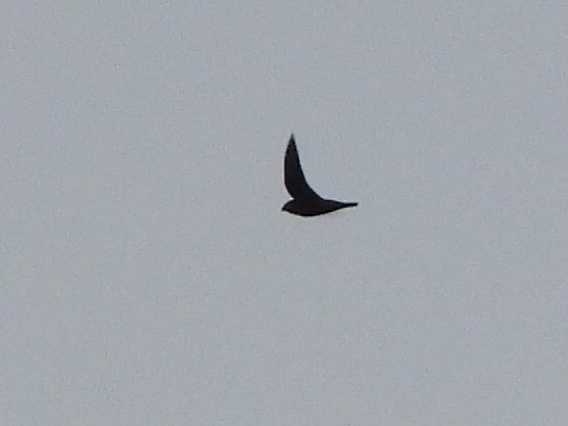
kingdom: Animalia
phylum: Chordata
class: Aves
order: Caprimulgiformes
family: Caprimulgidae
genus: Chordeiles
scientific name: Chordeiles minor
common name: Common nighthawk
